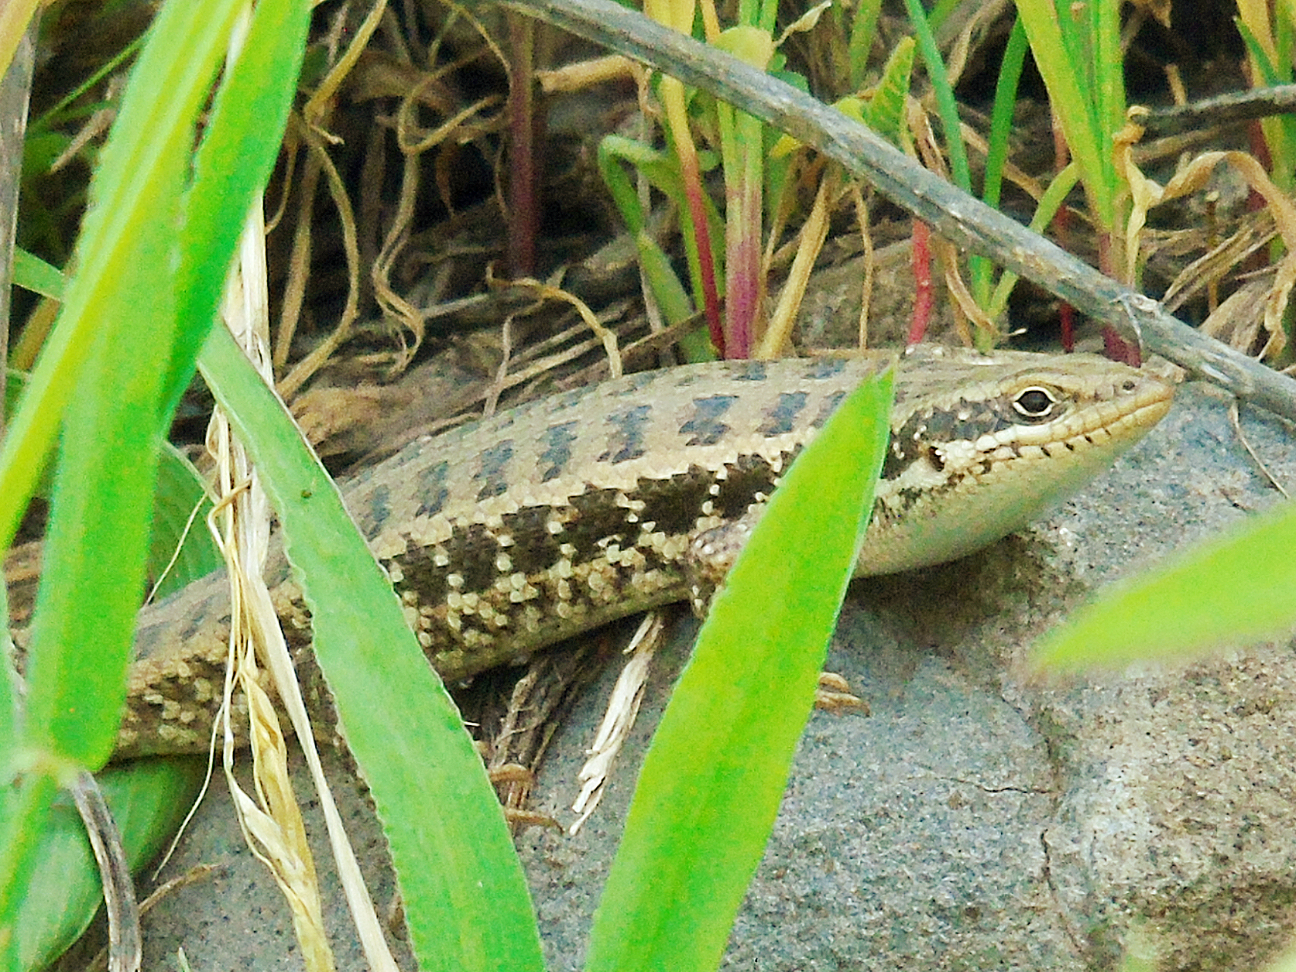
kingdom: Animalia
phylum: Chordata
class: Squamata
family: Scincidae
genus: Heremites
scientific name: Heremites auratus
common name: Golden grass mabuya
